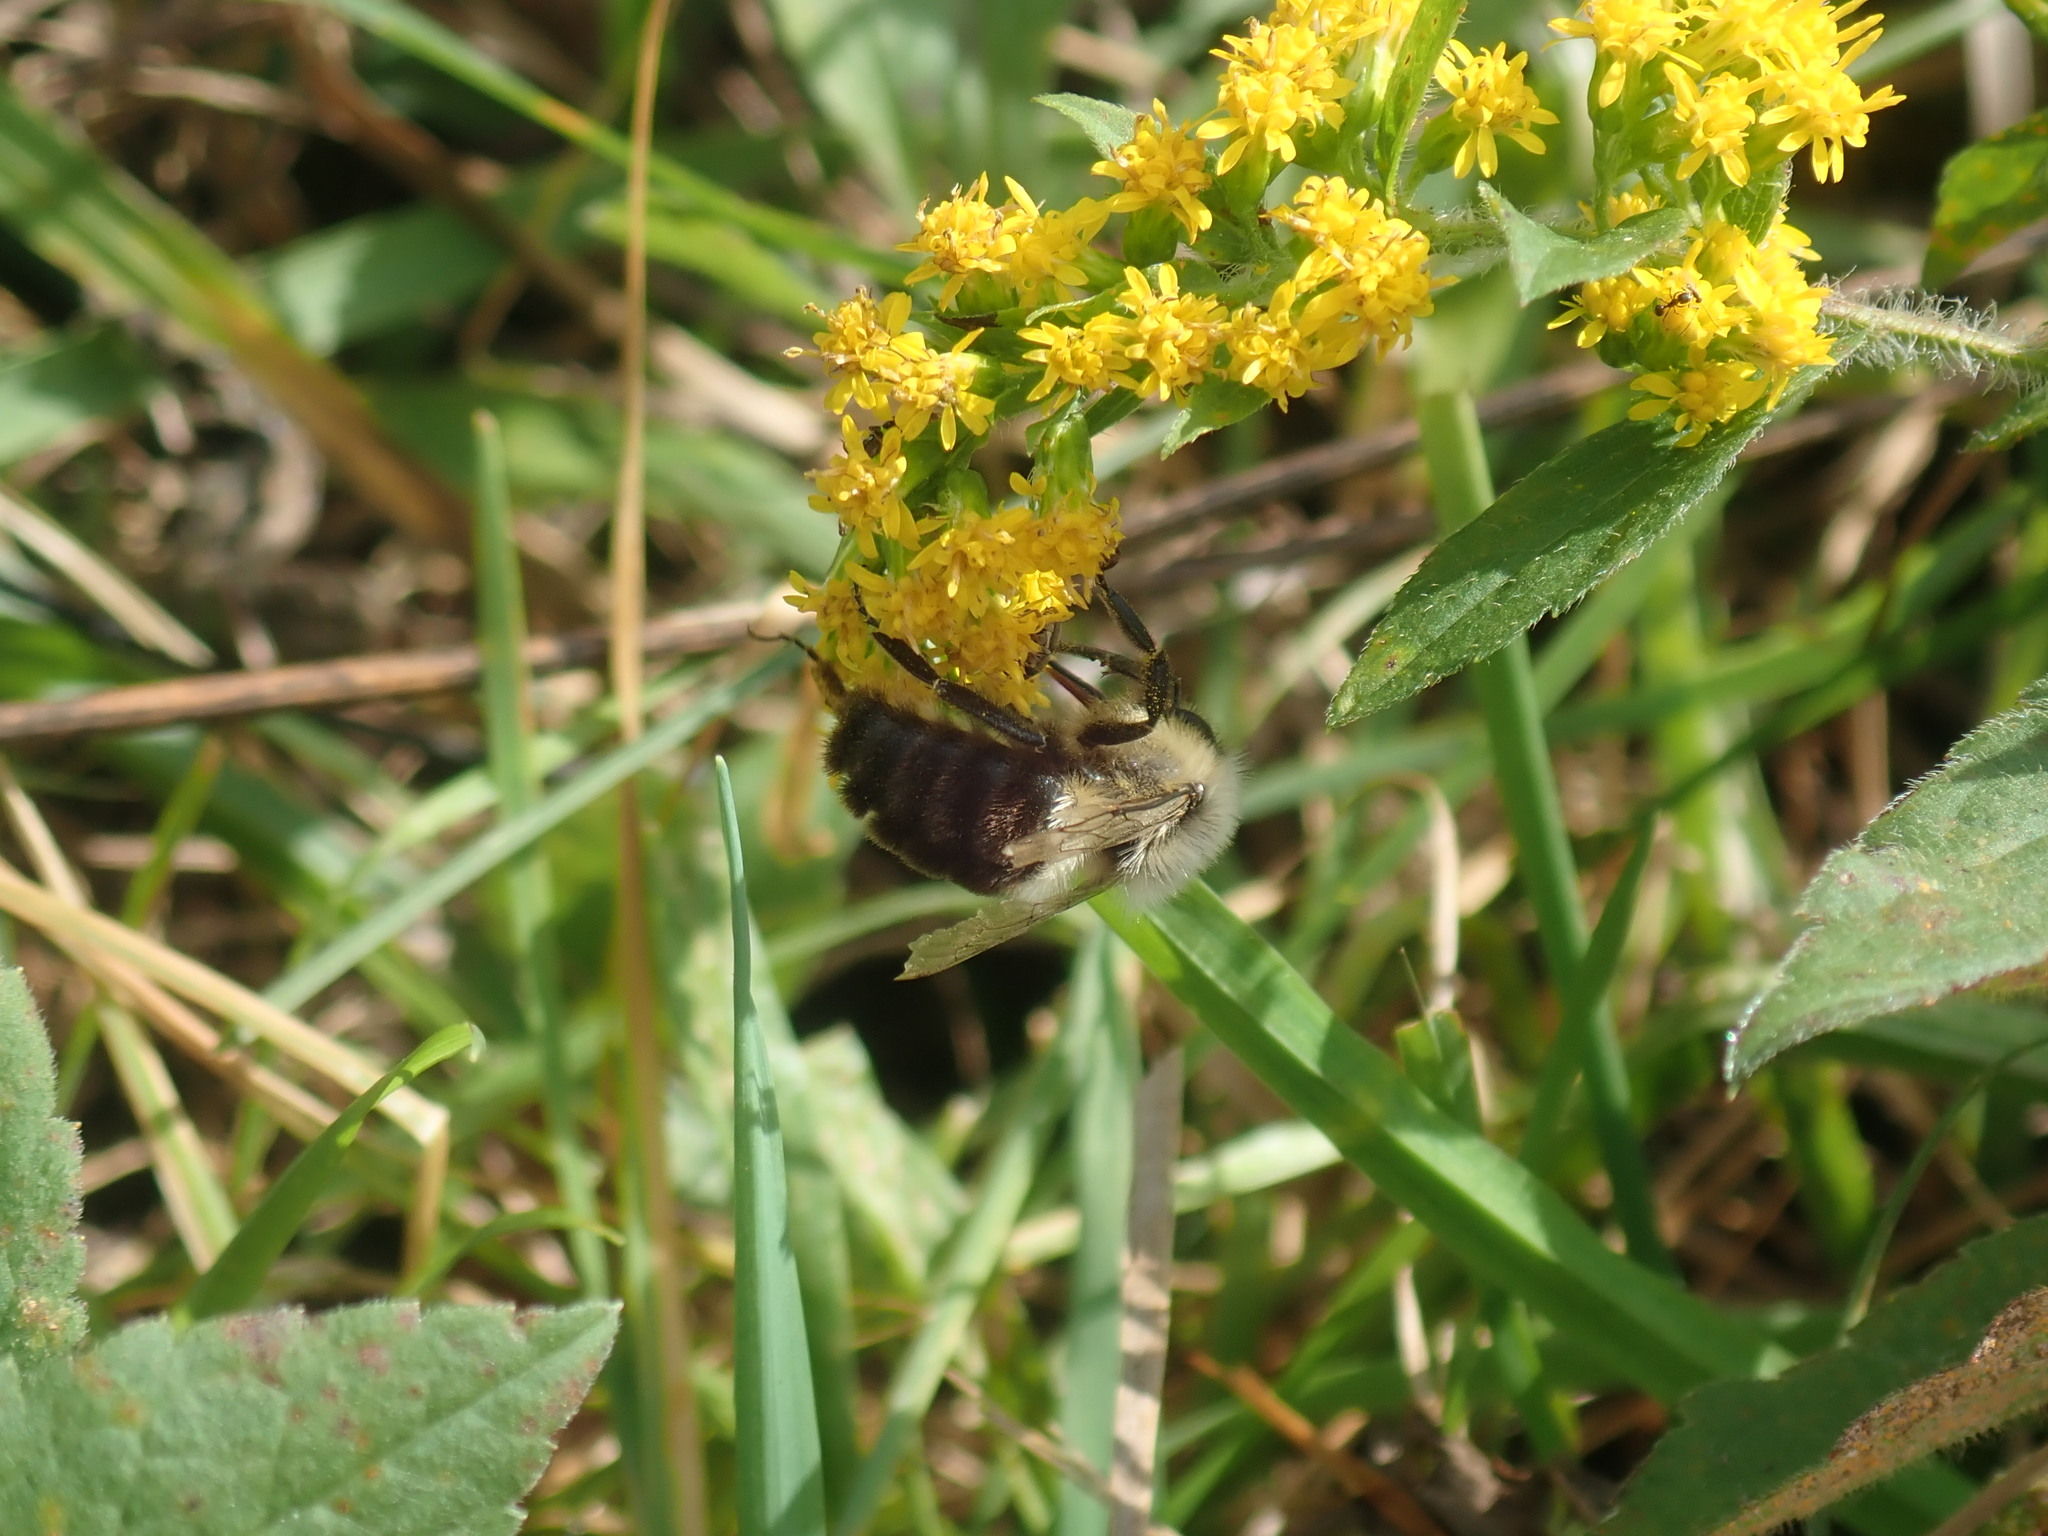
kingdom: Animalia
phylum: Arthropoda
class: Insecta
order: Hymenoptera
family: Apidae
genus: Bombus
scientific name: Bombus impatiens
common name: Common eastern bumble bee
